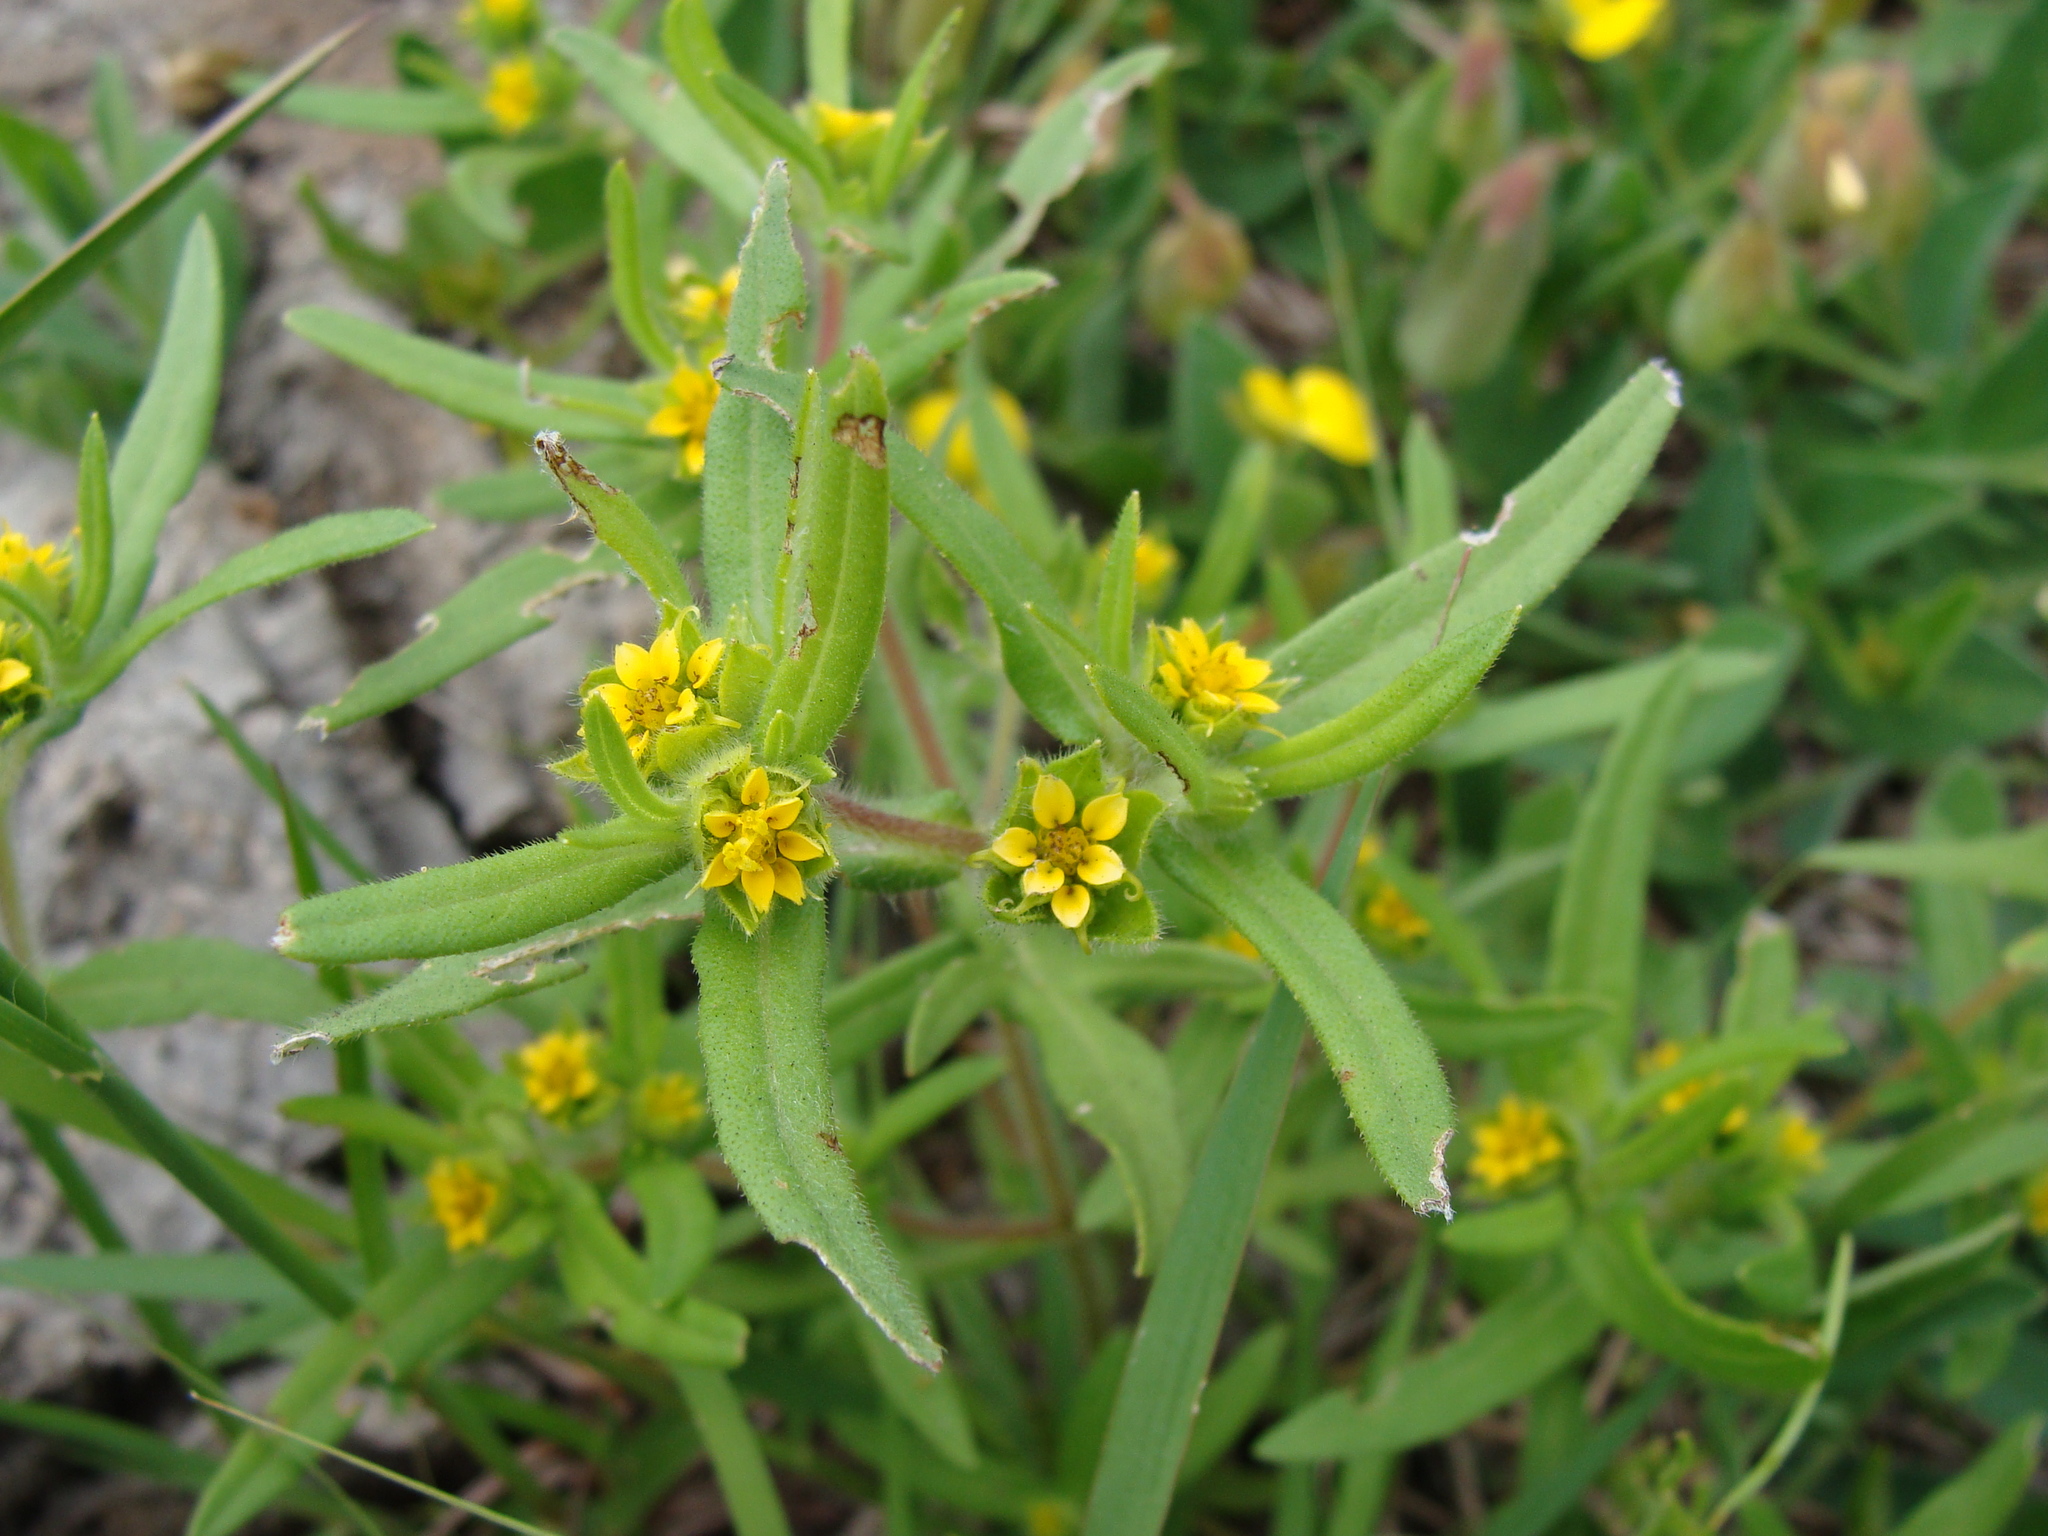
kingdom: Plantae
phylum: Tracheophyta
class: Magnoliopsida
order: Asterales
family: Asteraceae
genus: Melampodium
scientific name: Melampodium sericeum
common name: Rough blackfoot
